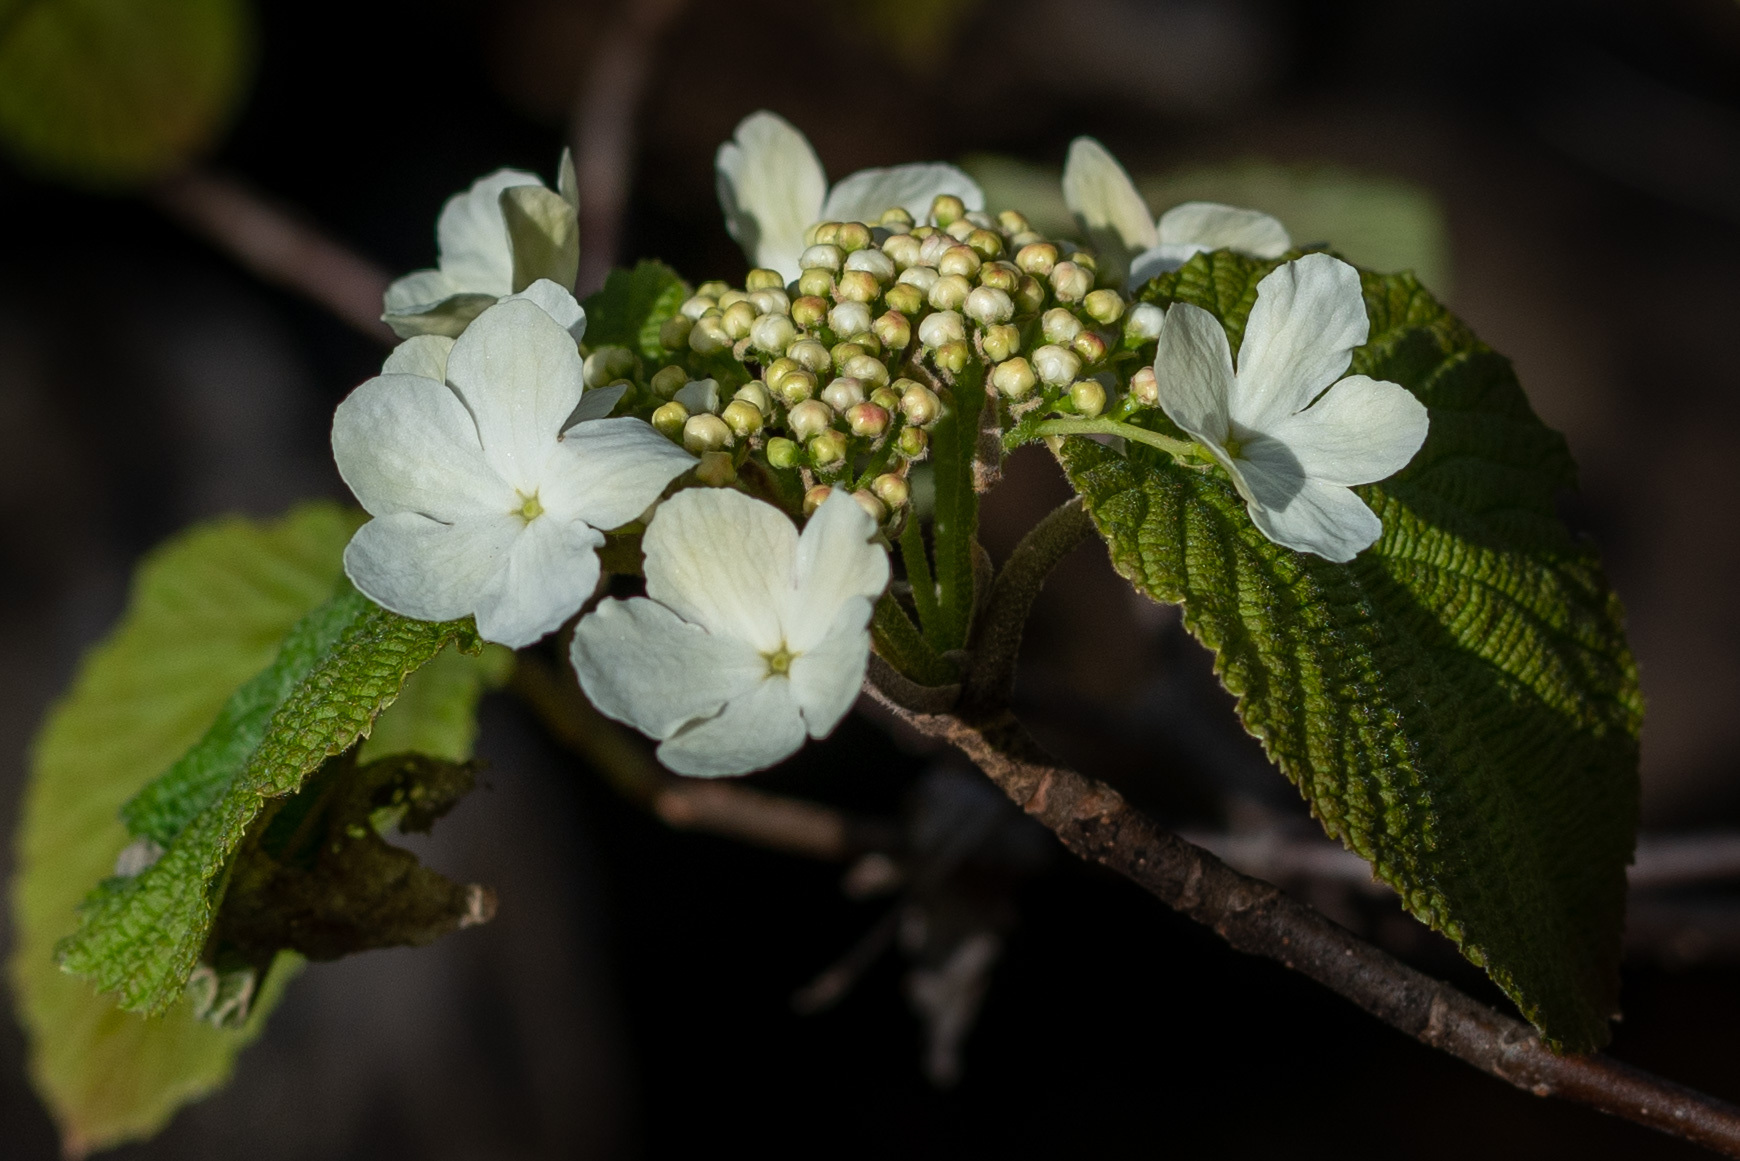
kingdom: Plantae
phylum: Tracheophyta
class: Magnoliopsida
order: Dipsacales
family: Viburnaceae
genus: Viburnum
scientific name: Viburnum lantanoides
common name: Hobblebush
